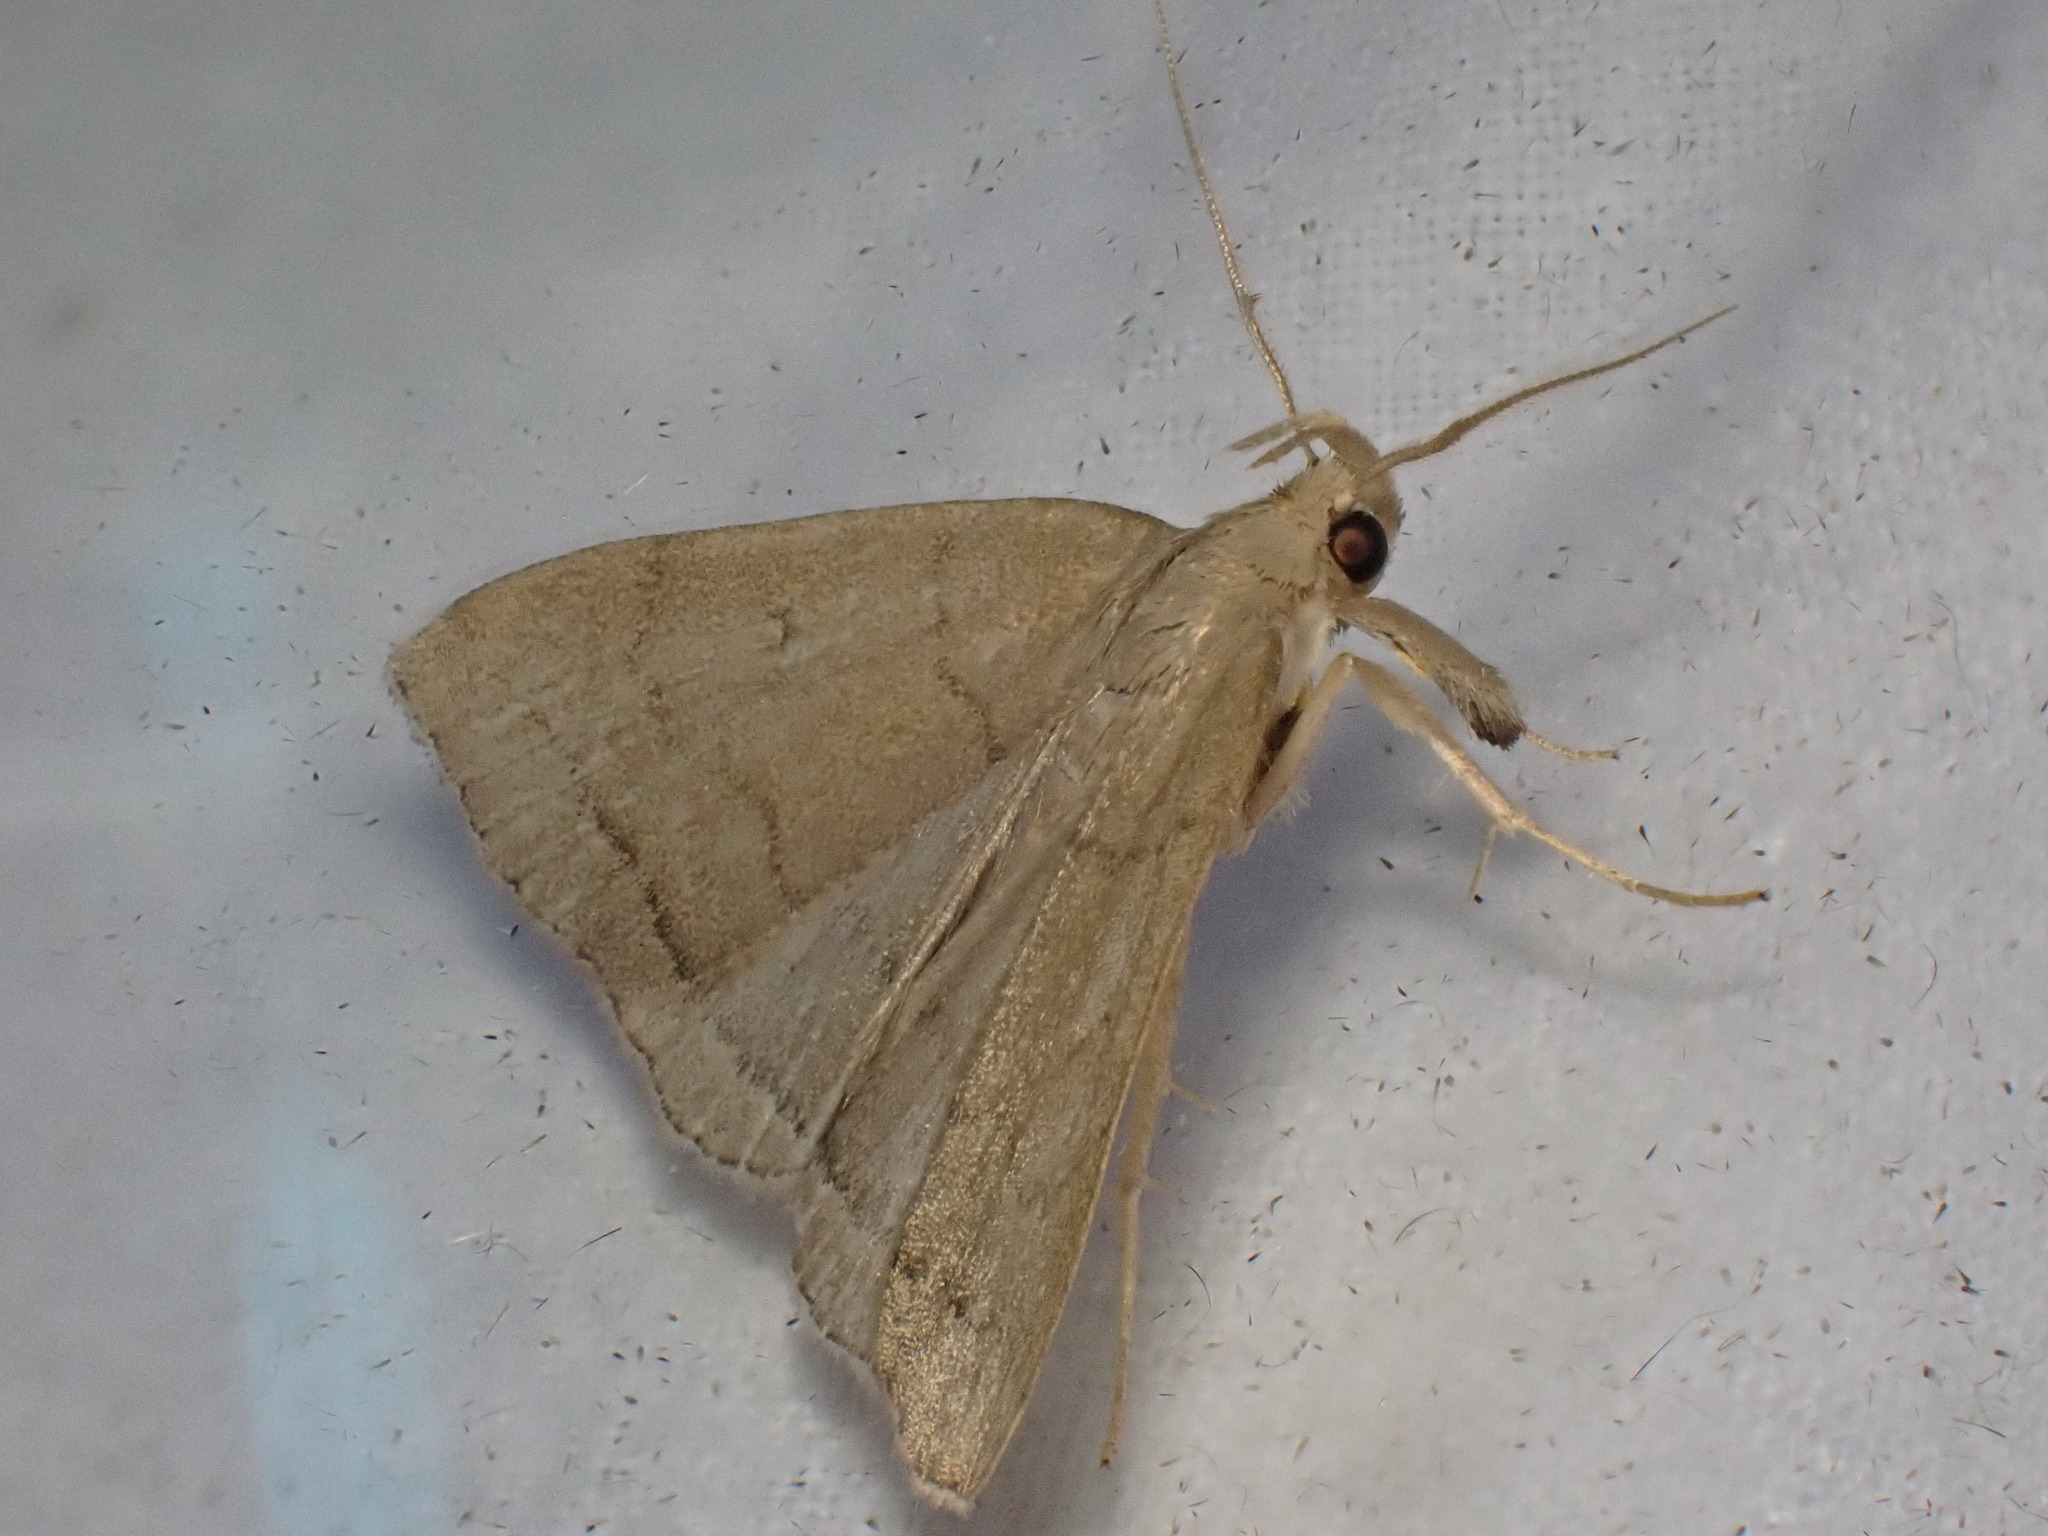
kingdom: Animalia
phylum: Arthropoda
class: Insecta
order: Lepidoptera
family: Erebidae
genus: Herminia
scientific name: Herminia tarsipennalis
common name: Fan-foot
